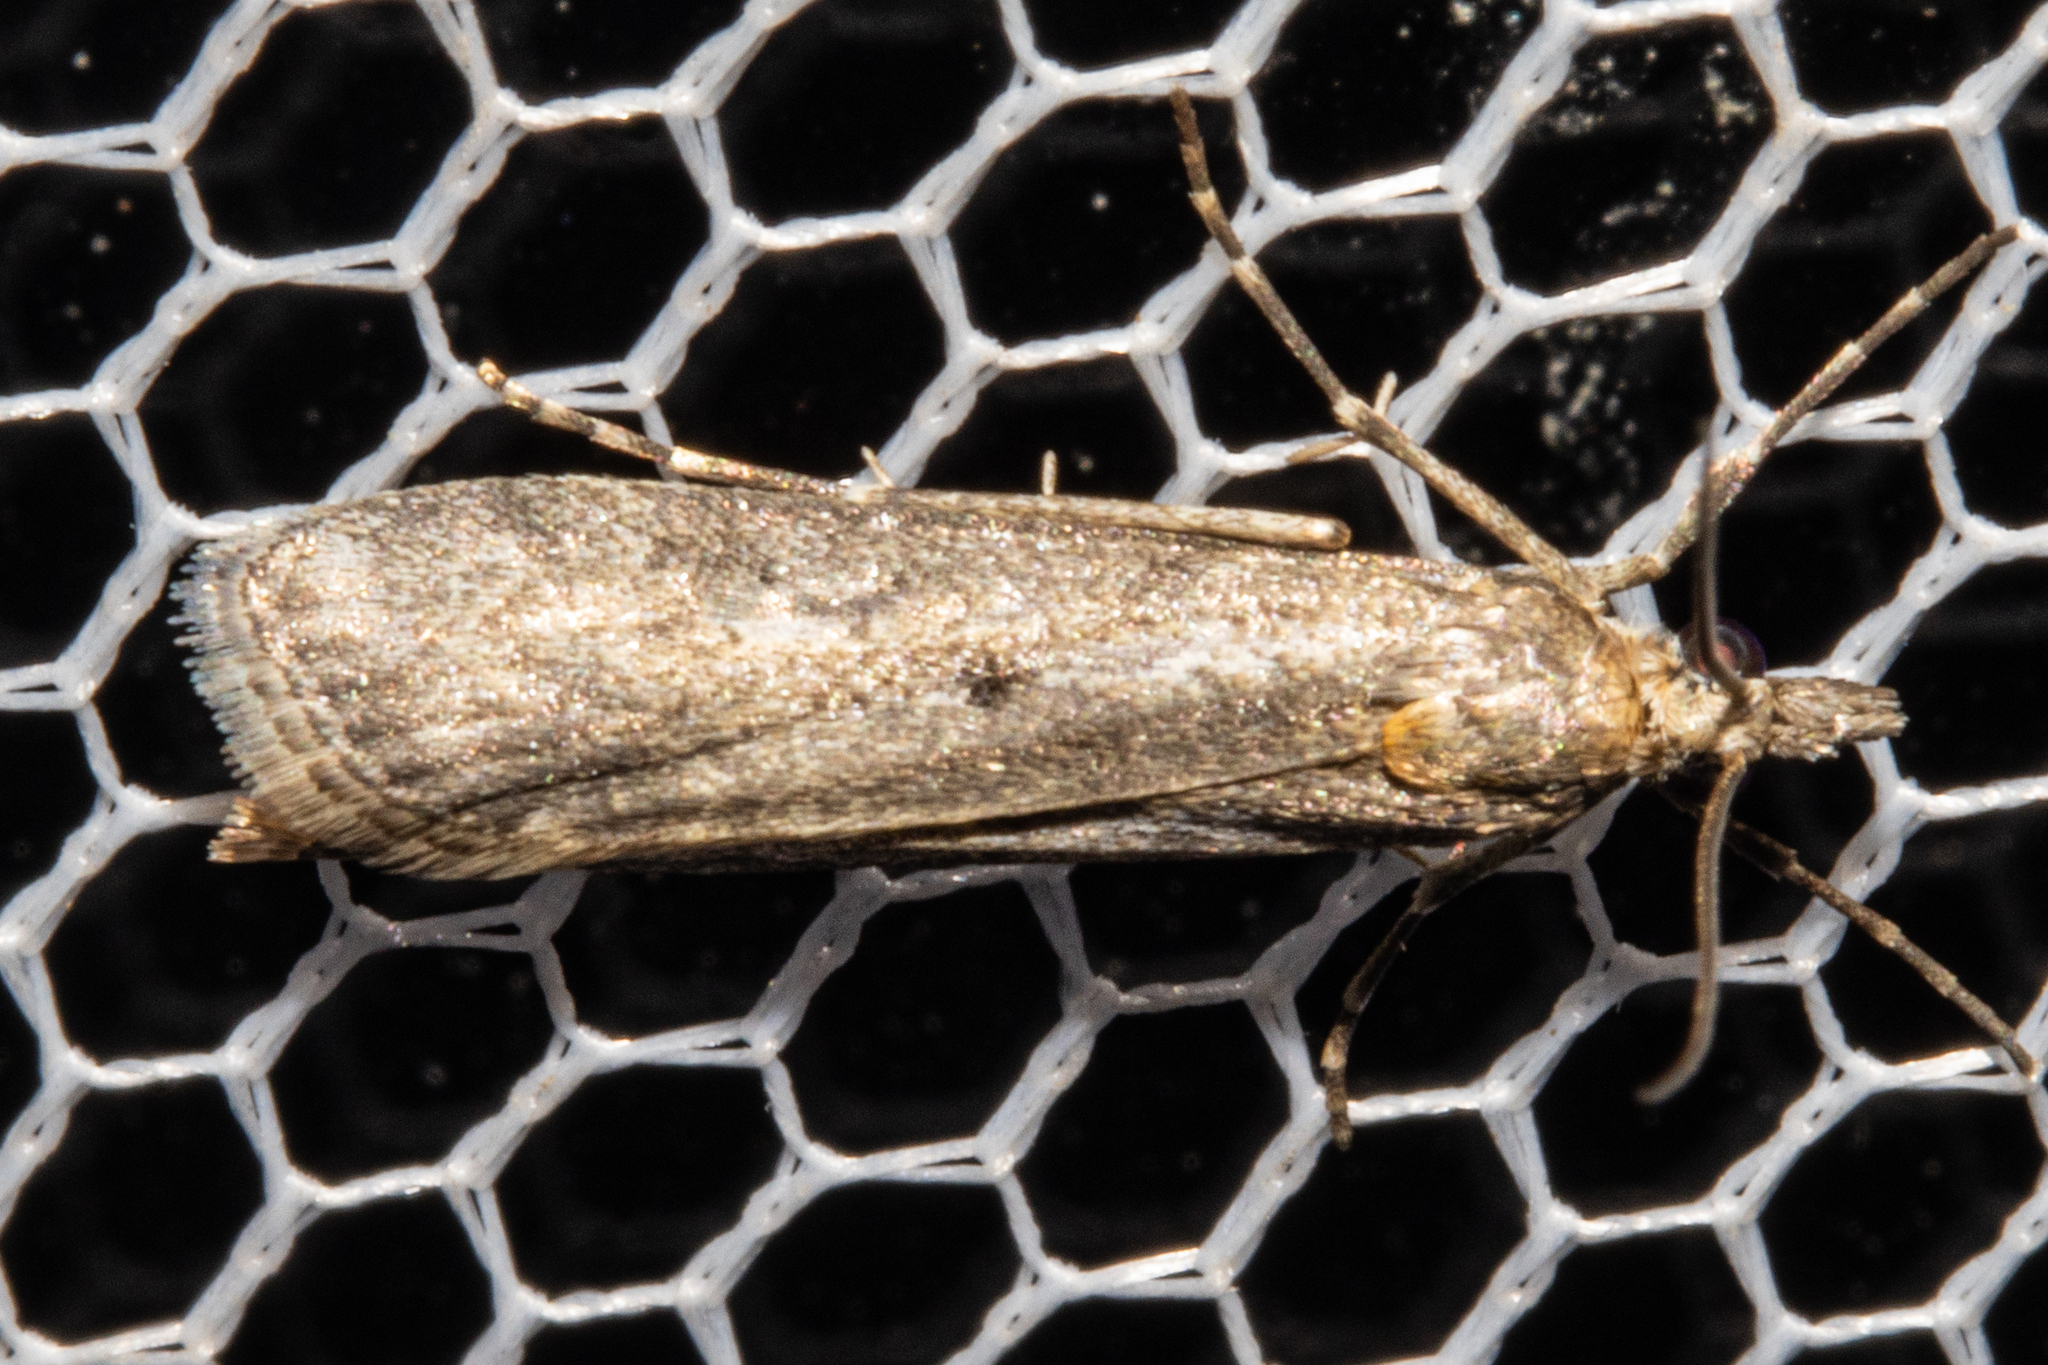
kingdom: Animalia
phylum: Arthropoda
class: Insecta
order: Lepidoptera
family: Crambidae
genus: Eudonia
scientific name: Eudonia leptalea
